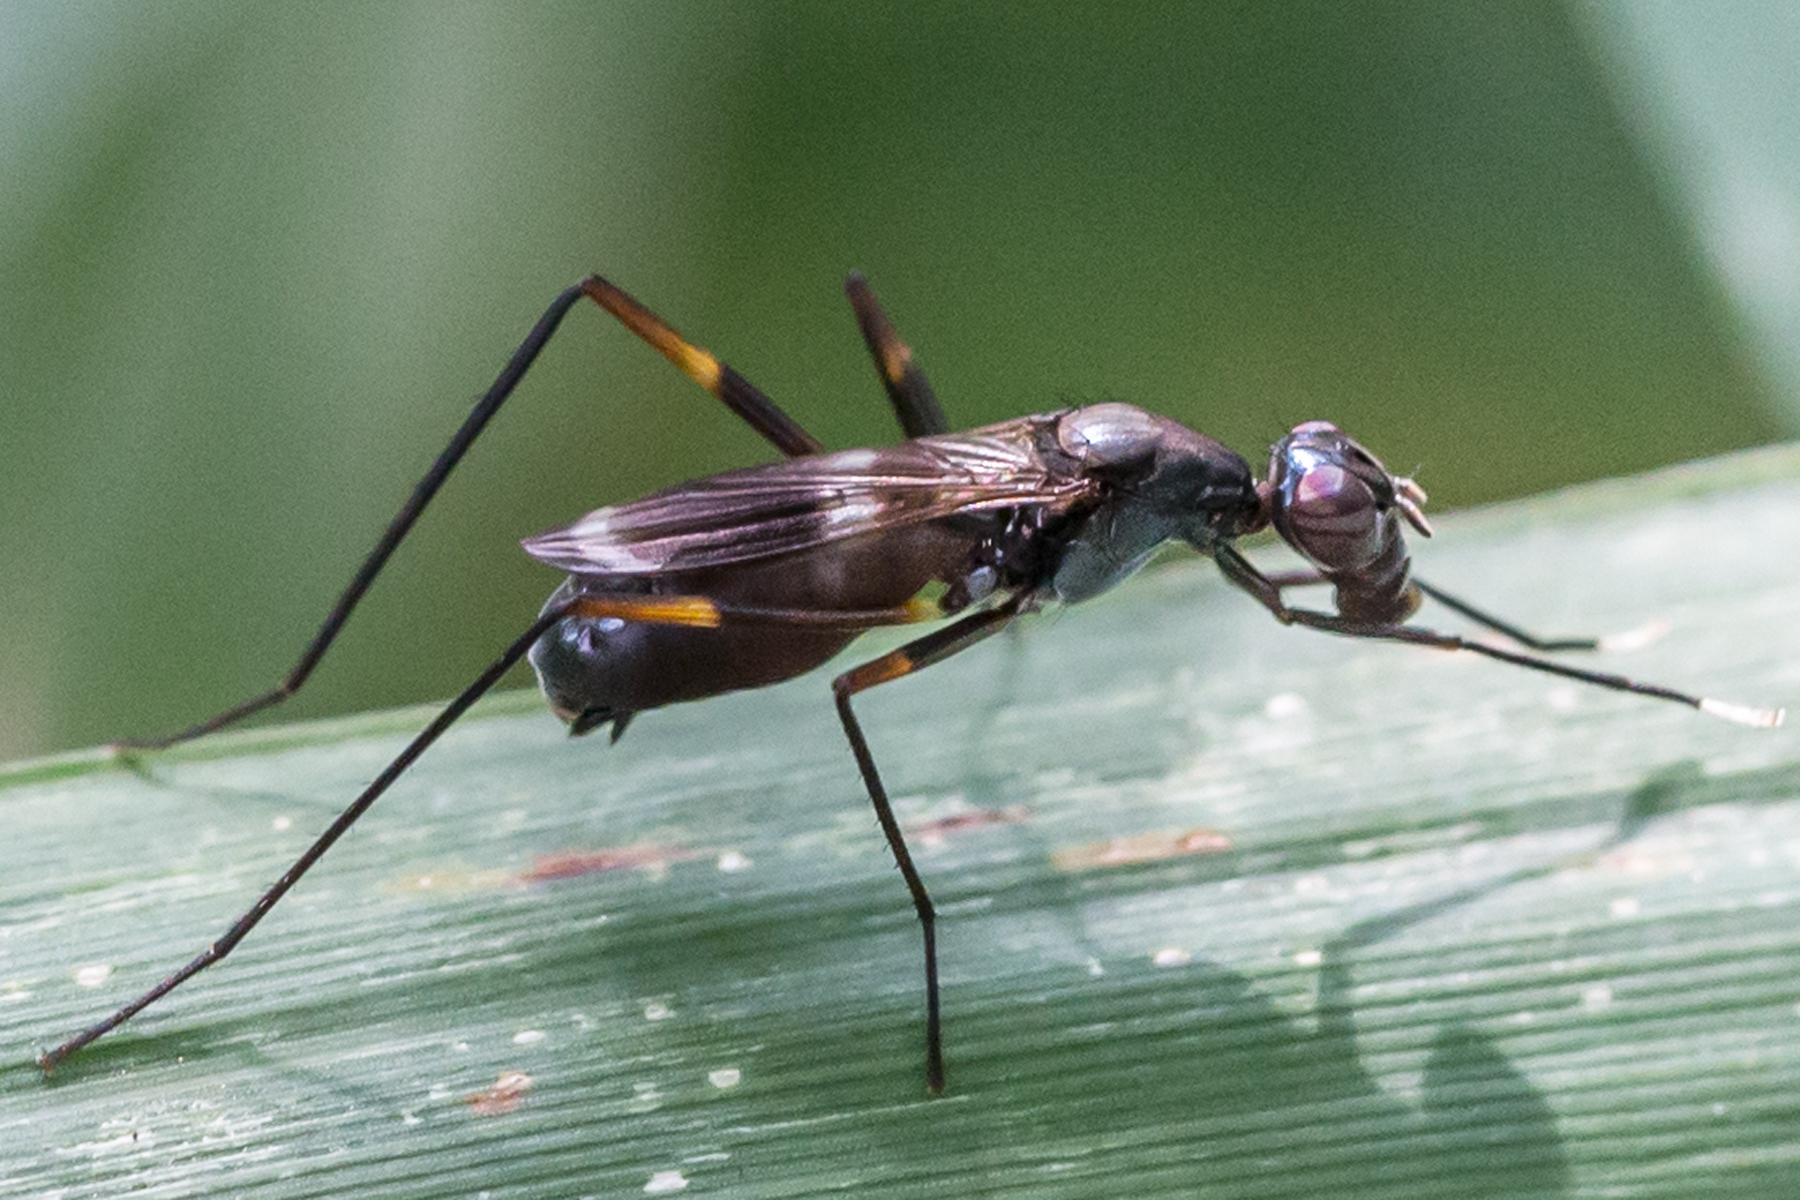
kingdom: Animalia
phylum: Arthropoda
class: Insecta
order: Diptera
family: Micropezidae
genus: Taeniaptera
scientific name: Taeniaptera trivittata
